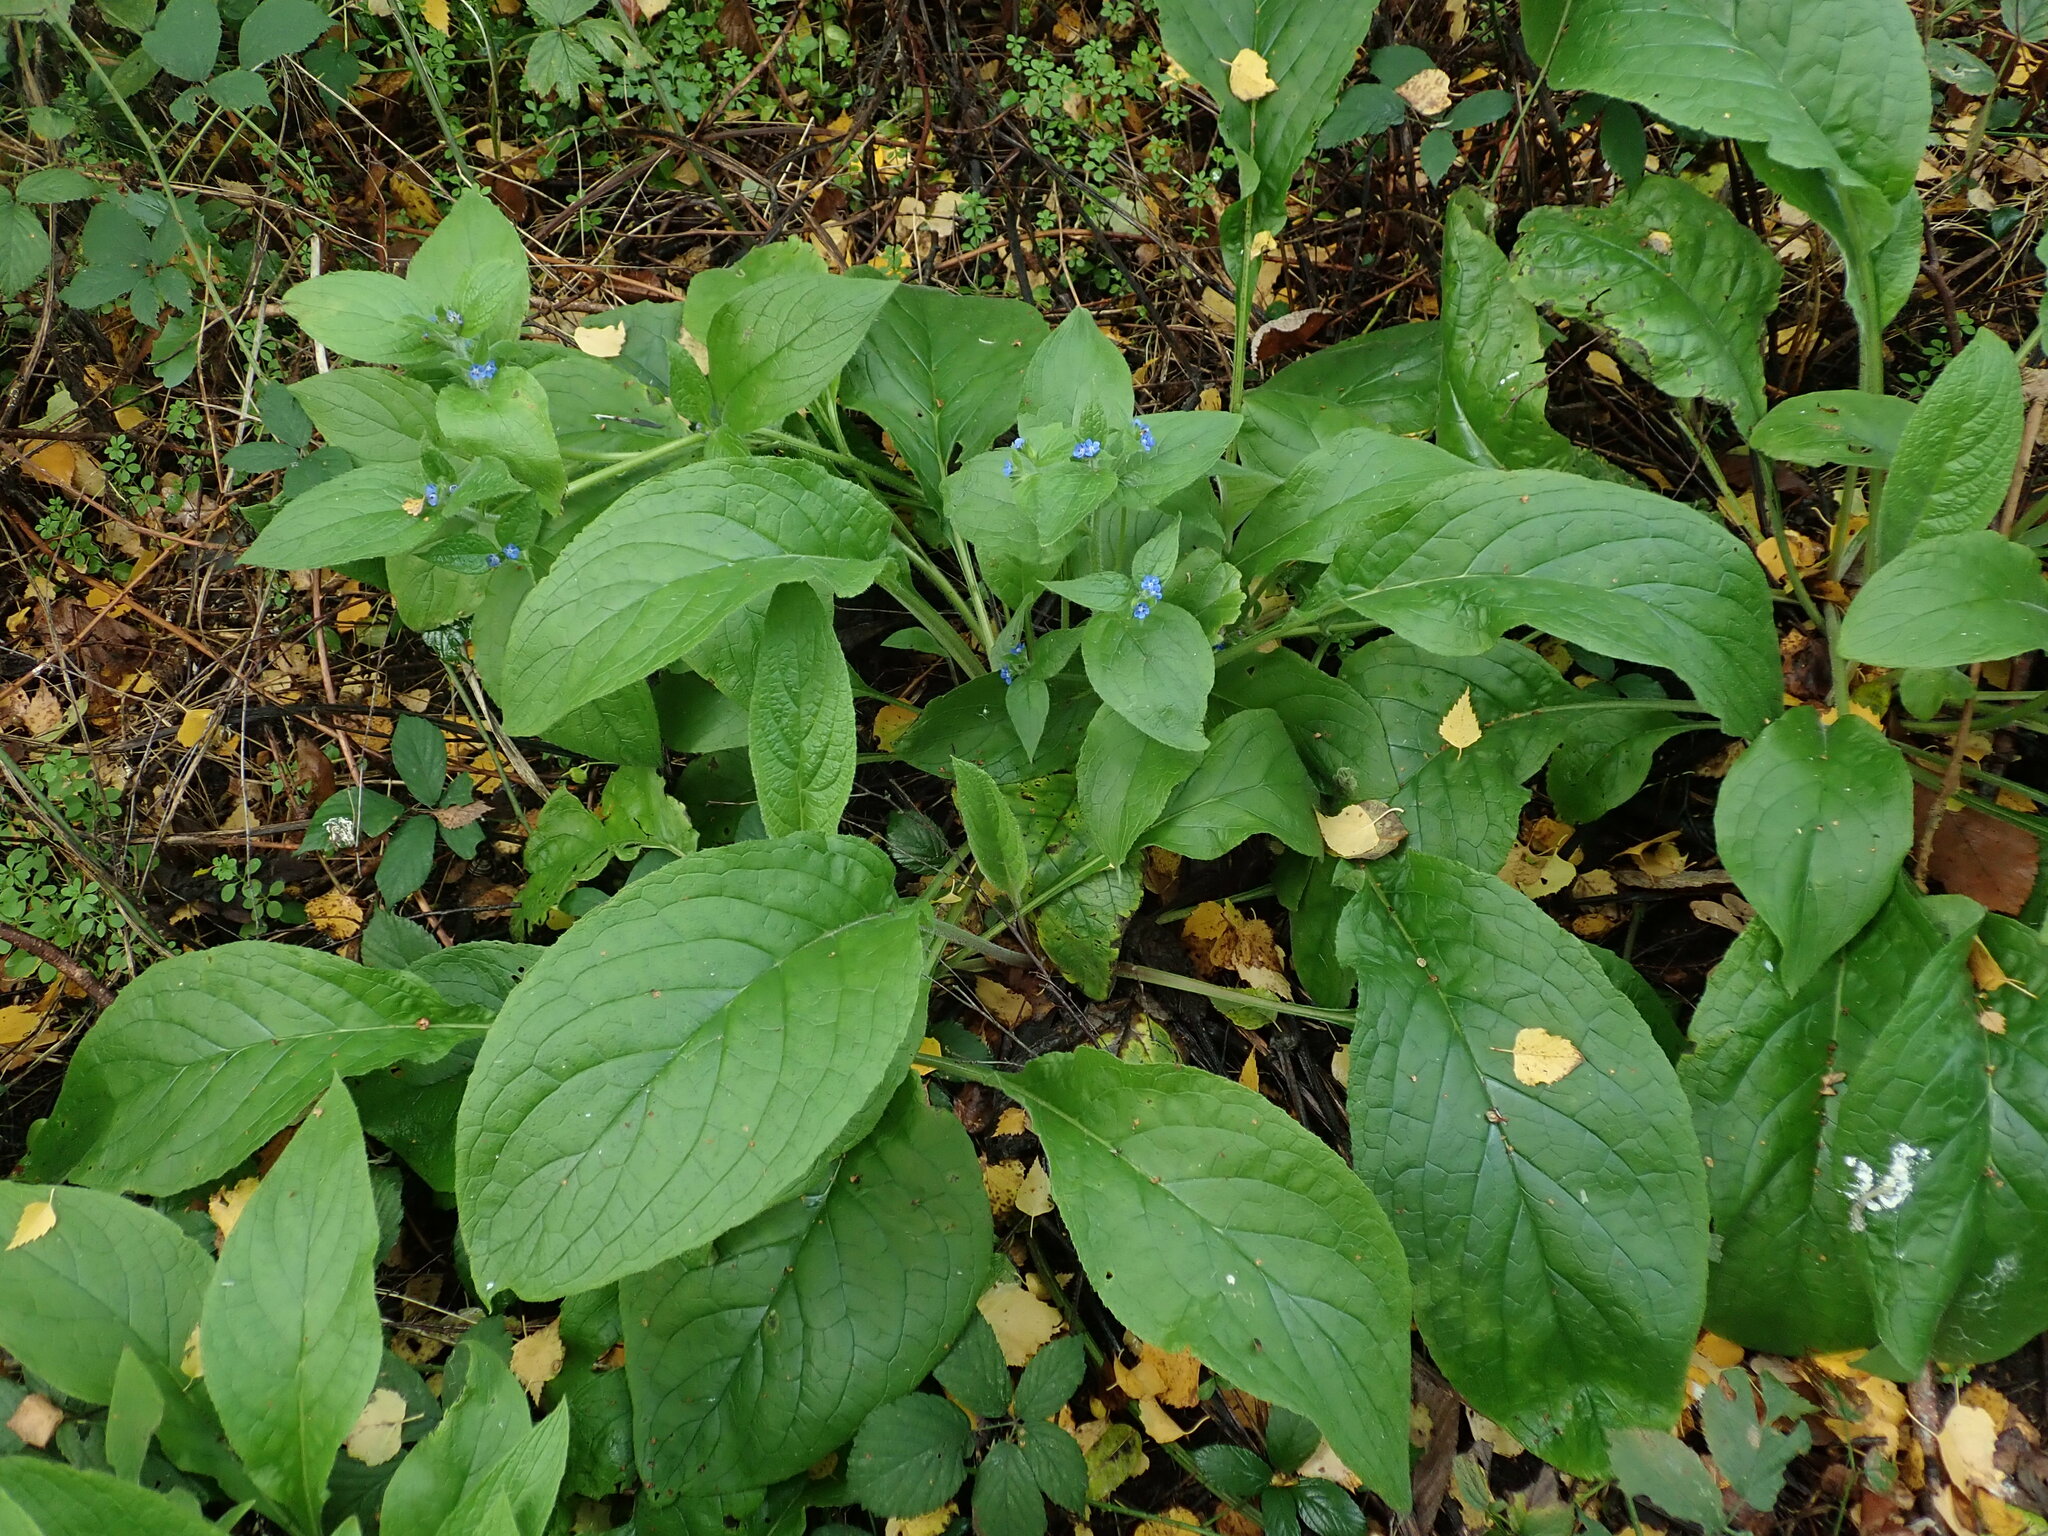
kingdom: Plantae
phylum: Tracheophyta
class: Magnoliopsida
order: Boraginales
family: Boraginaceae
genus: Pentaglottis
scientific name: Pentaglottis sempervirens
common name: Green alkanet
